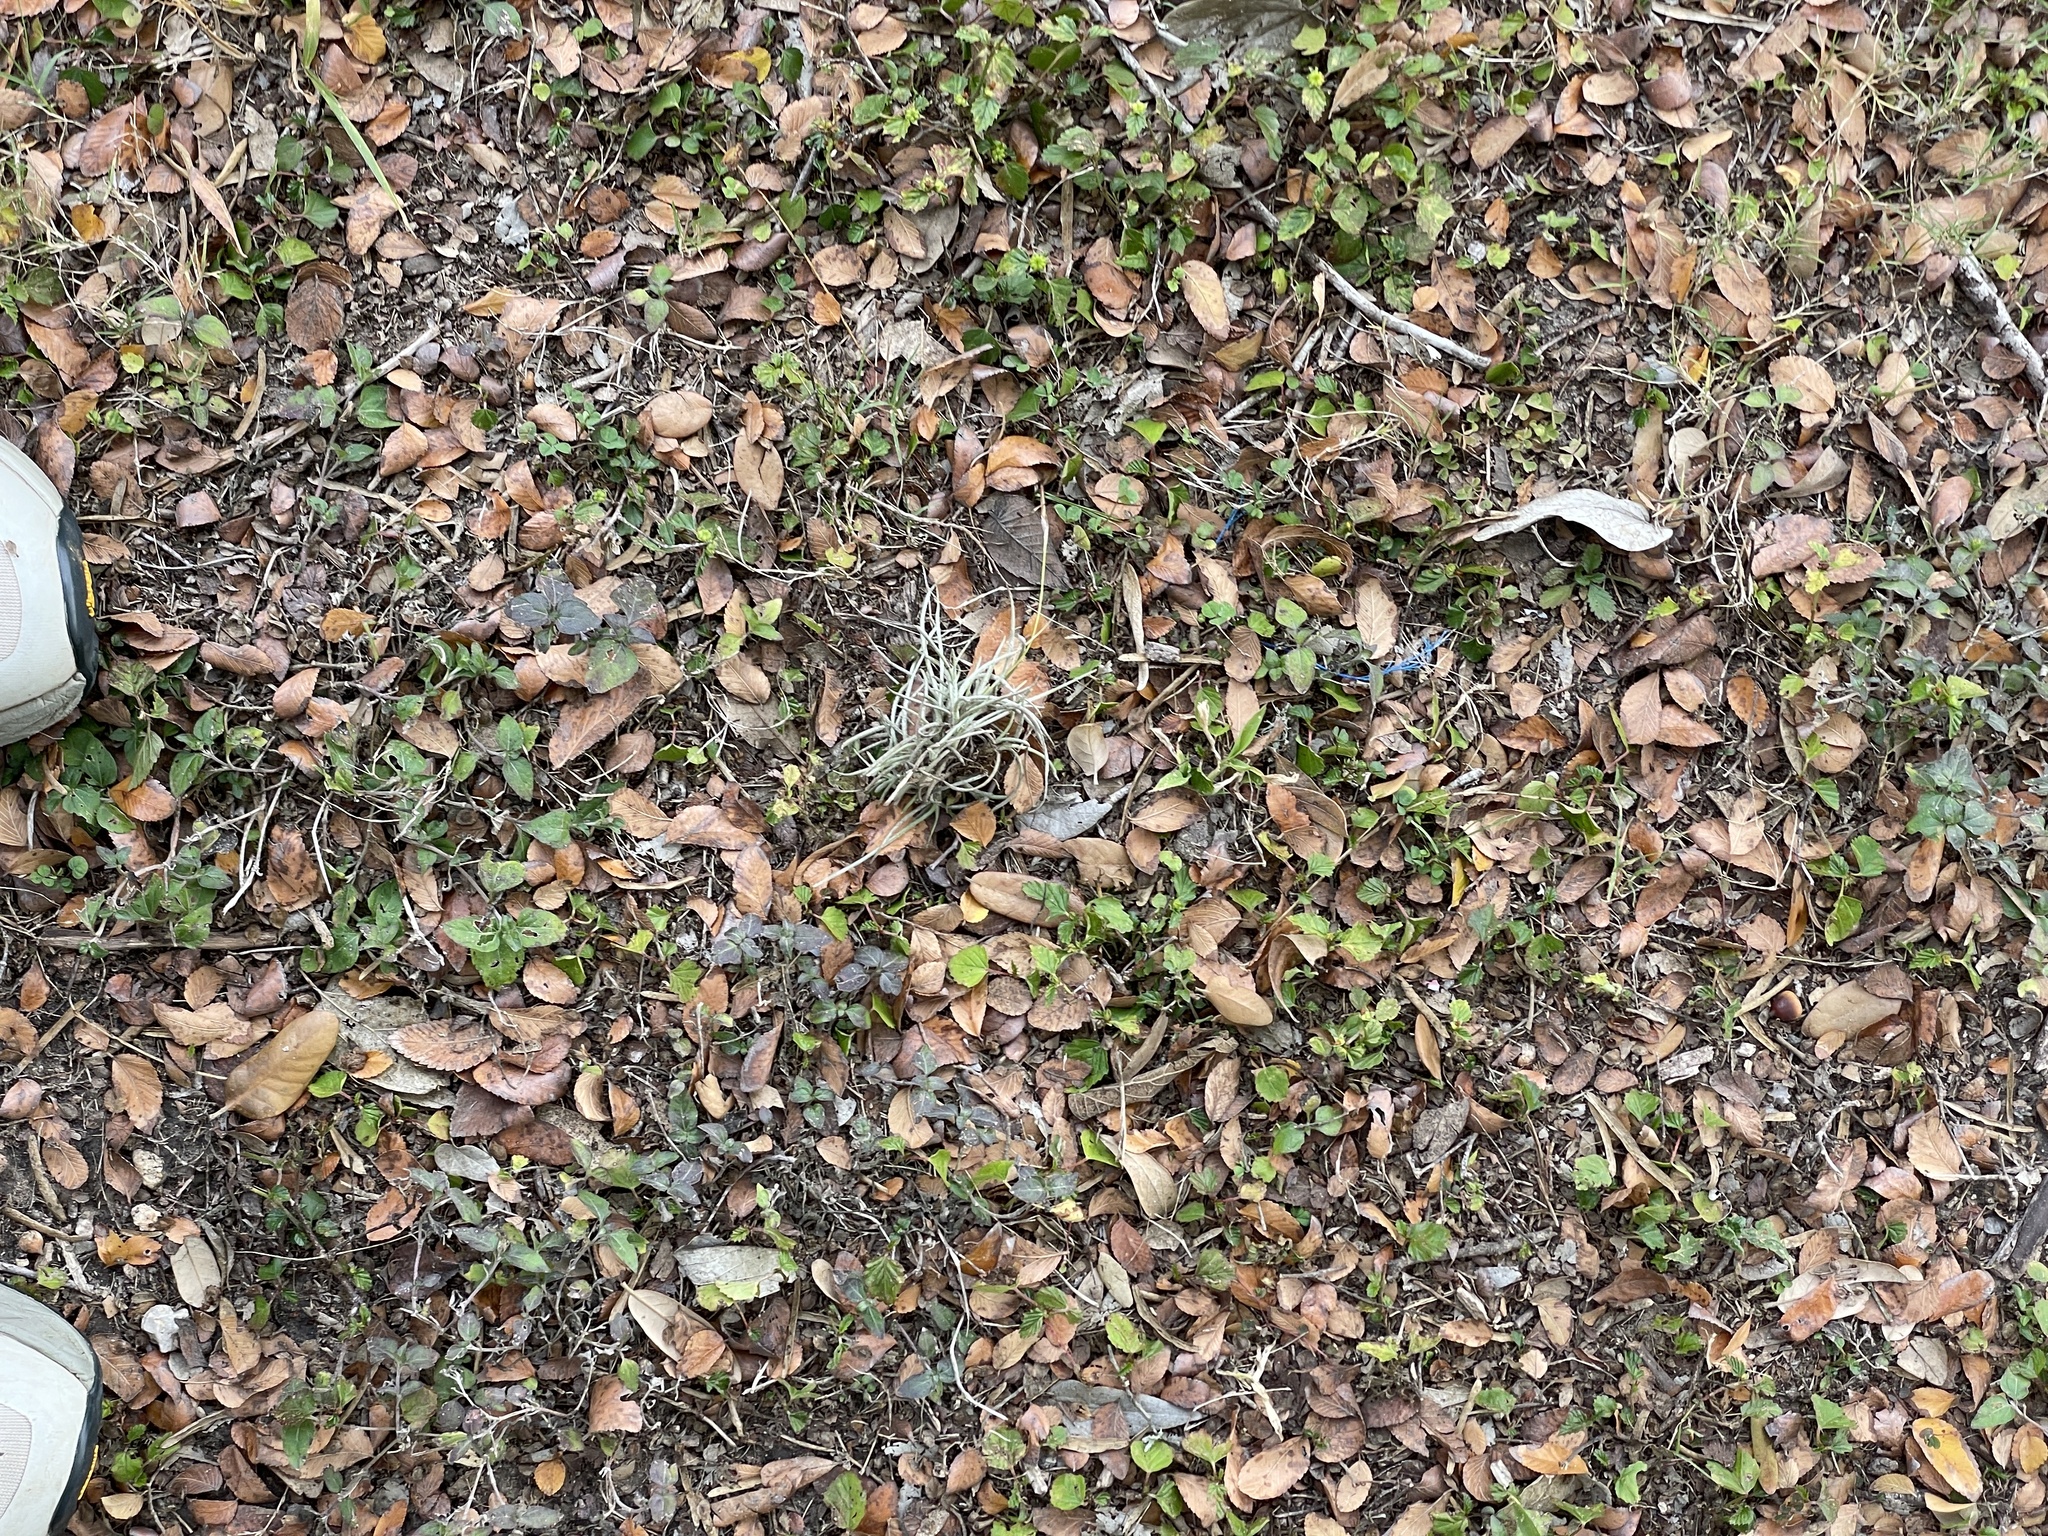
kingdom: Plantae
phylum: Tracheophyta
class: Liliopsida
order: Poales
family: Bromeliaceae
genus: Tillandsia
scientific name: Tillandsia recurvata
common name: Small ballmoss
